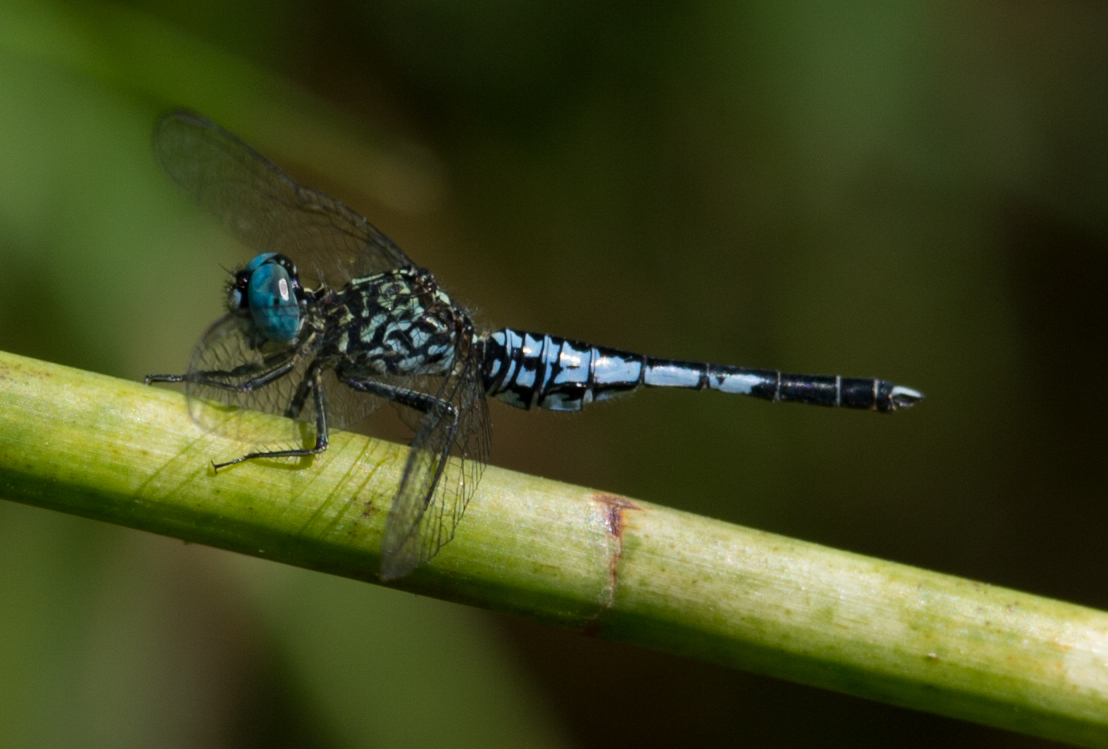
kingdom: Animalia
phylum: Arthropoda
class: Insecta
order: Odonata
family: Libellulidae
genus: Acisoma
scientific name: Acisoma inflatum
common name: Stout pintail
